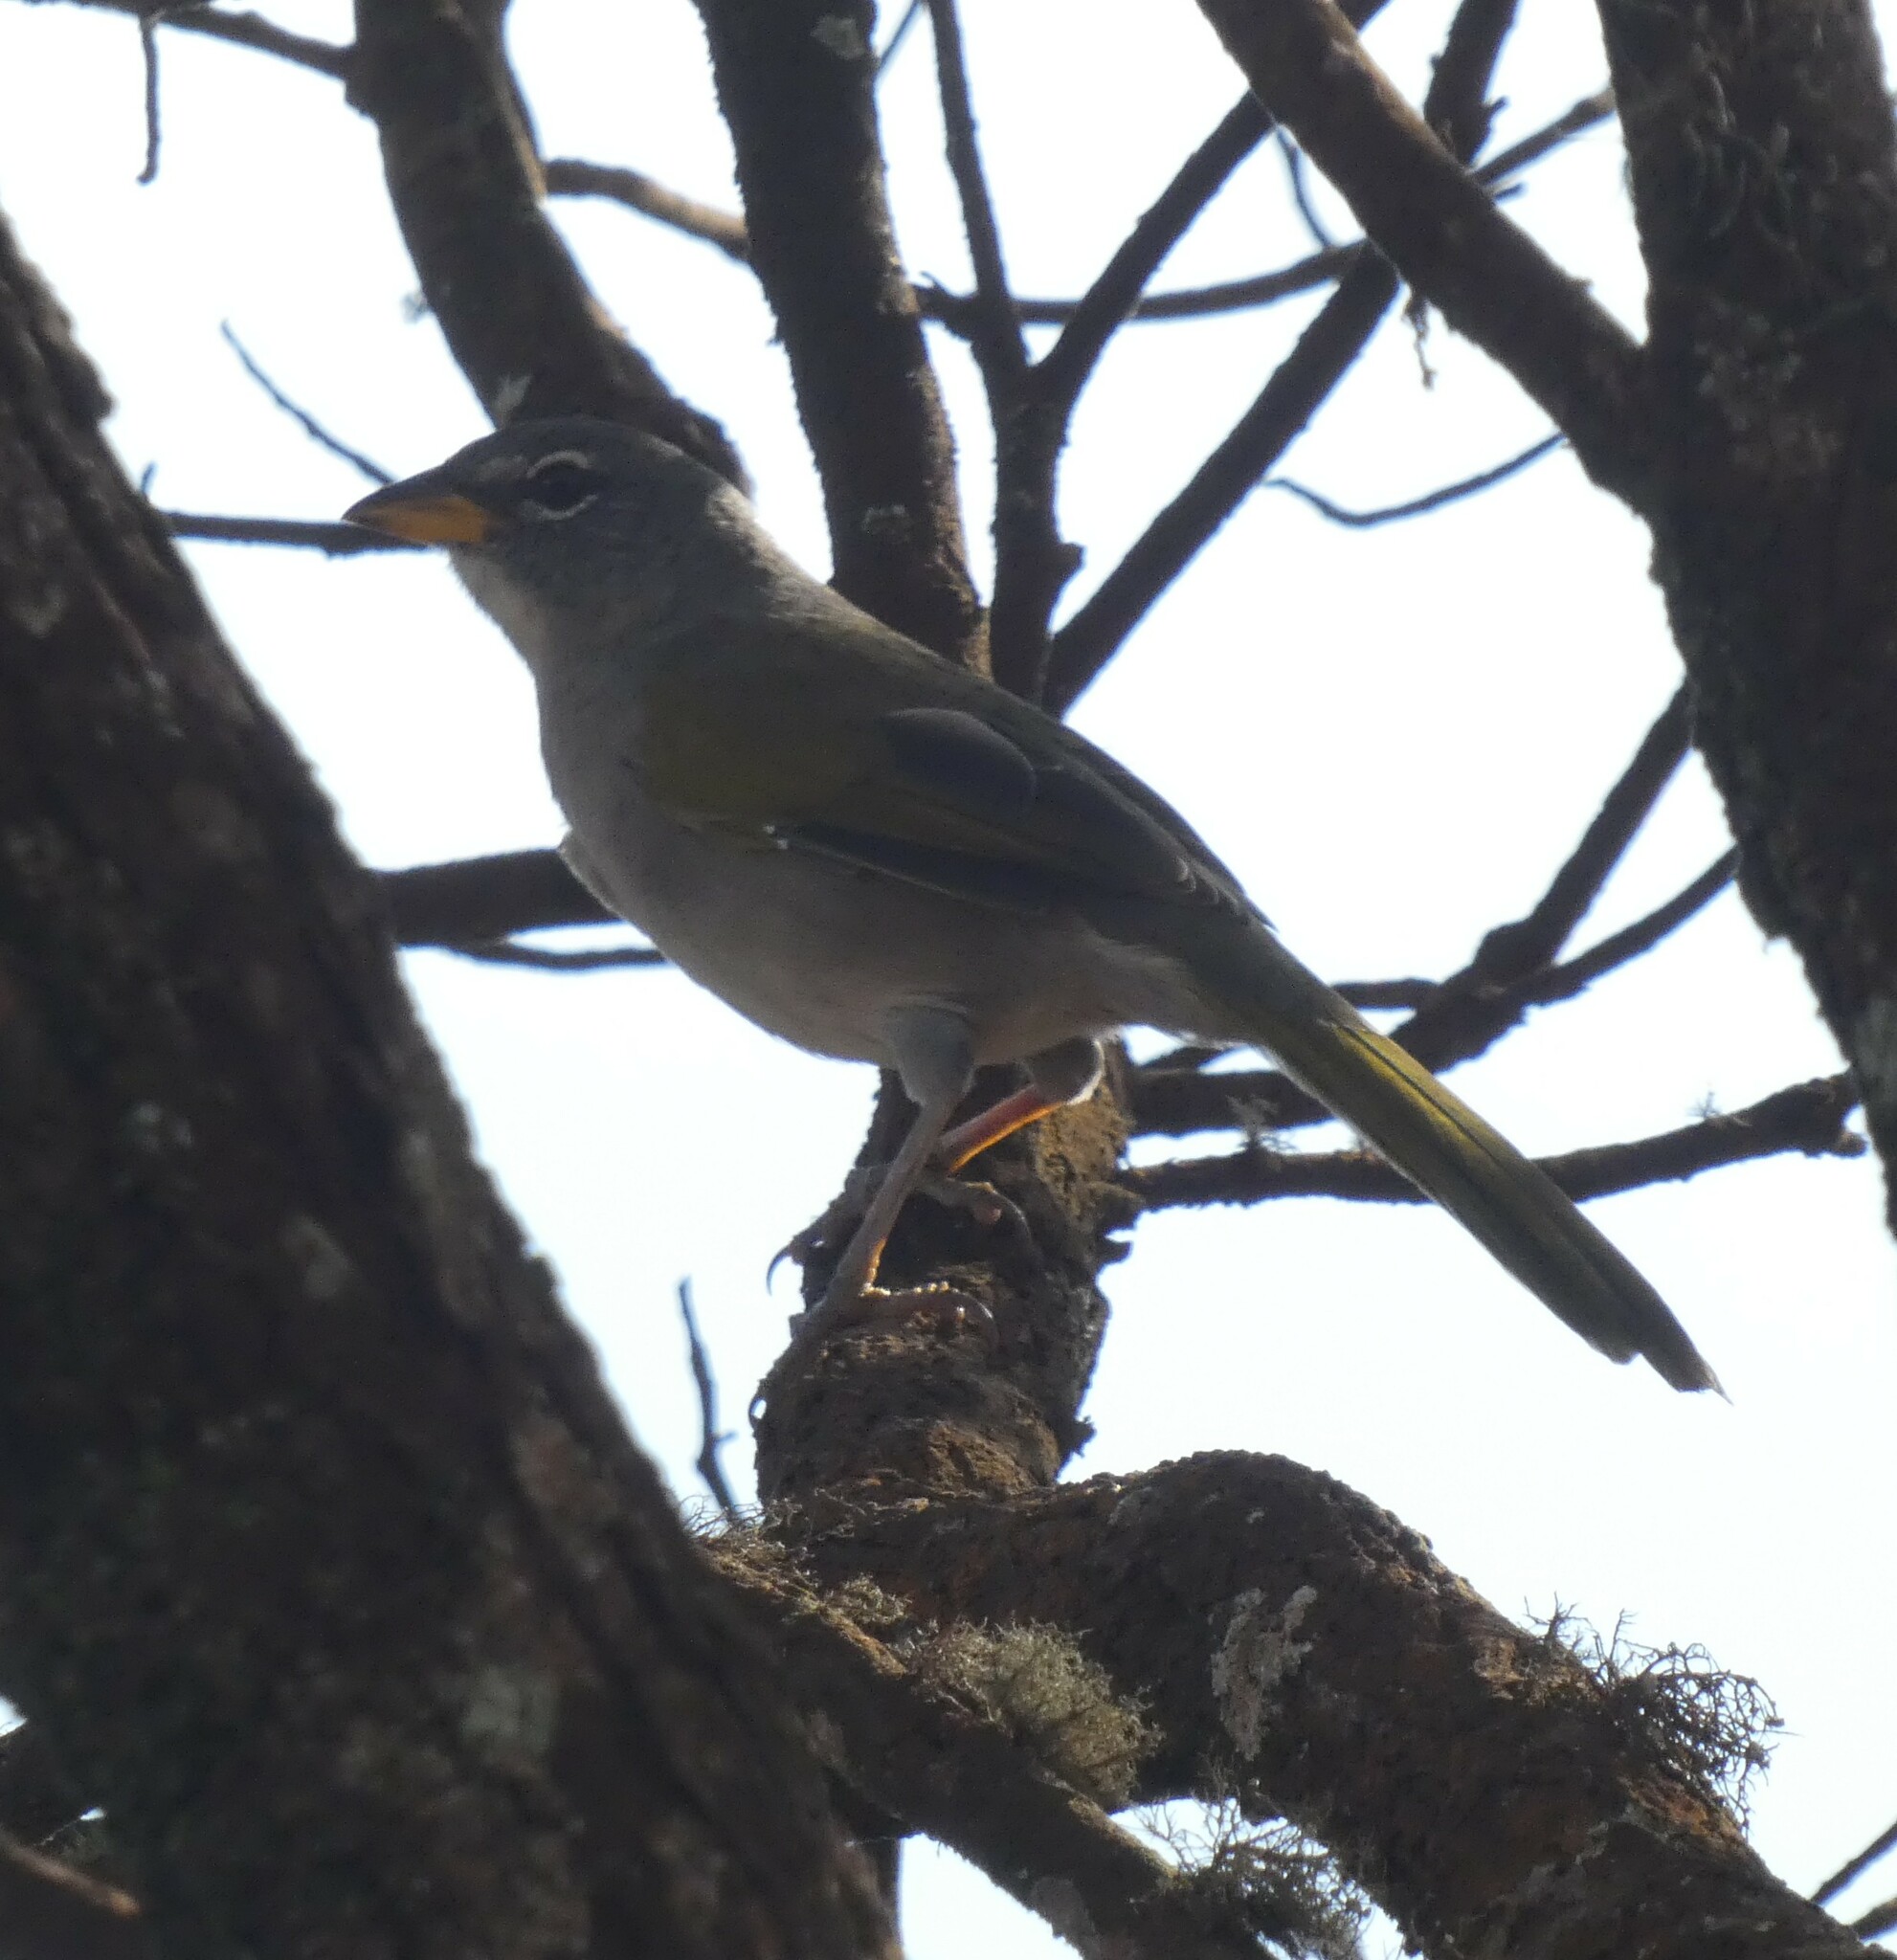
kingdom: Animalia
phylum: Chordata
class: Aves
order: Passeriformes
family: Thraupidae
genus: Embernagra
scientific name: Embernagra longicauda
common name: Serra finch
